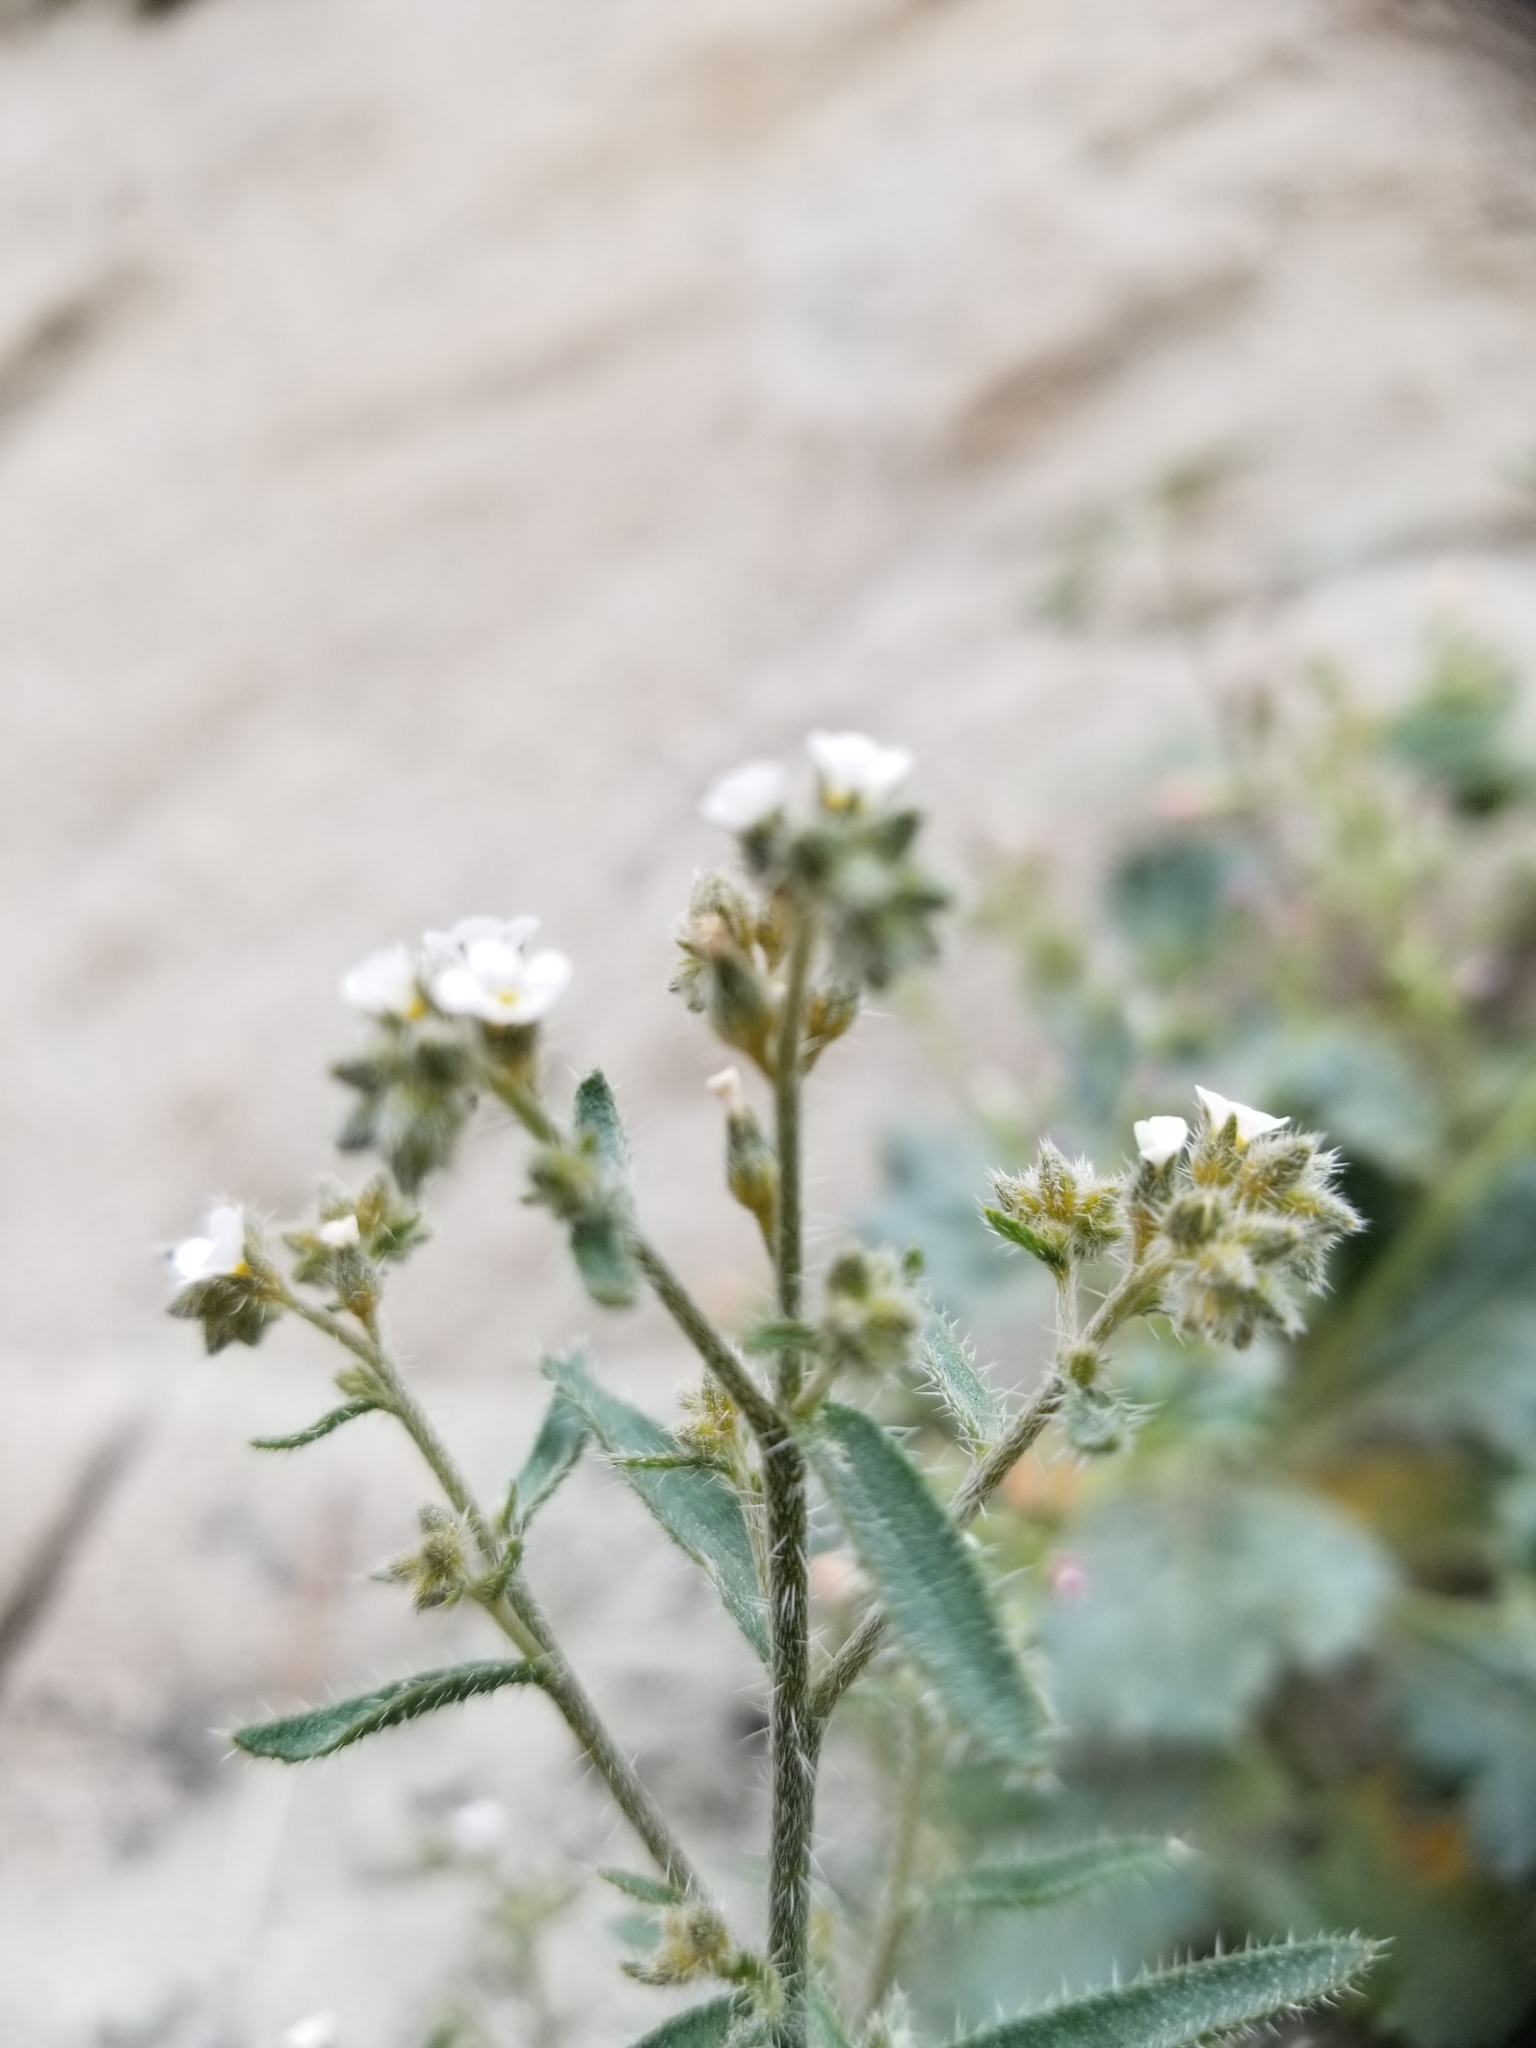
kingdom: Plantae
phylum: Tracheophyta
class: Magnoliopsida
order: Boraginales
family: Boraginaceae
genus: Cryptantha
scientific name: Cryptantha maritima
